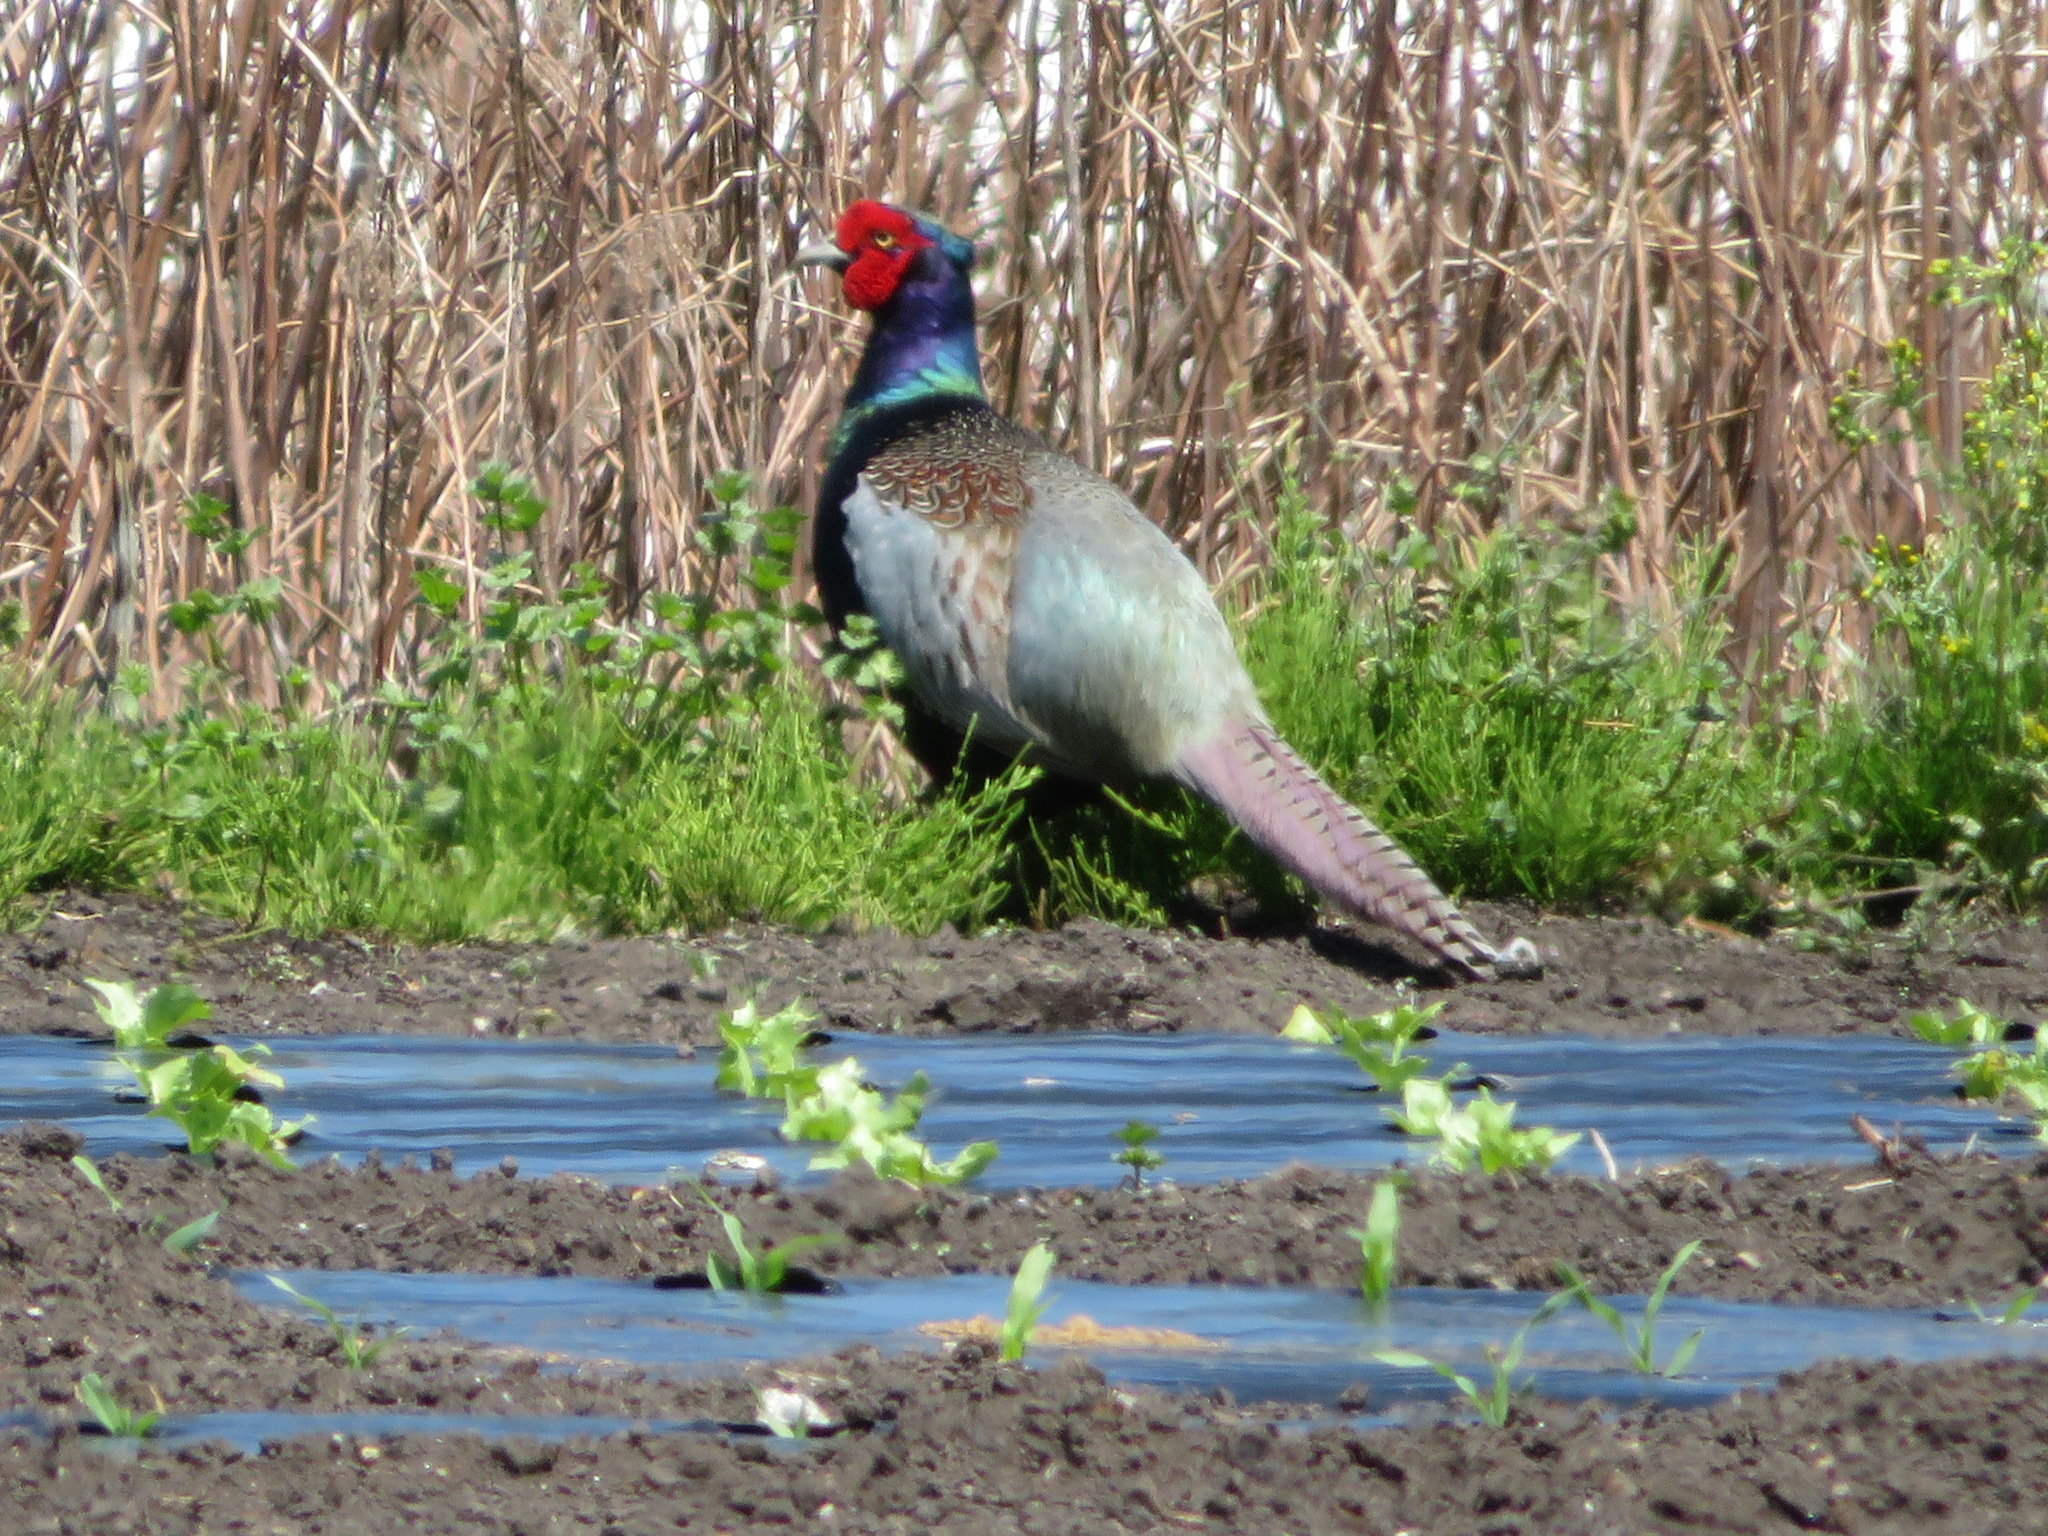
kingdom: Animalia
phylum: Chordata
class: Aves
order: Galliformes
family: Phasianidae
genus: Phasianus
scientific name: Phasianus versicolor
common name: Green pheasant
